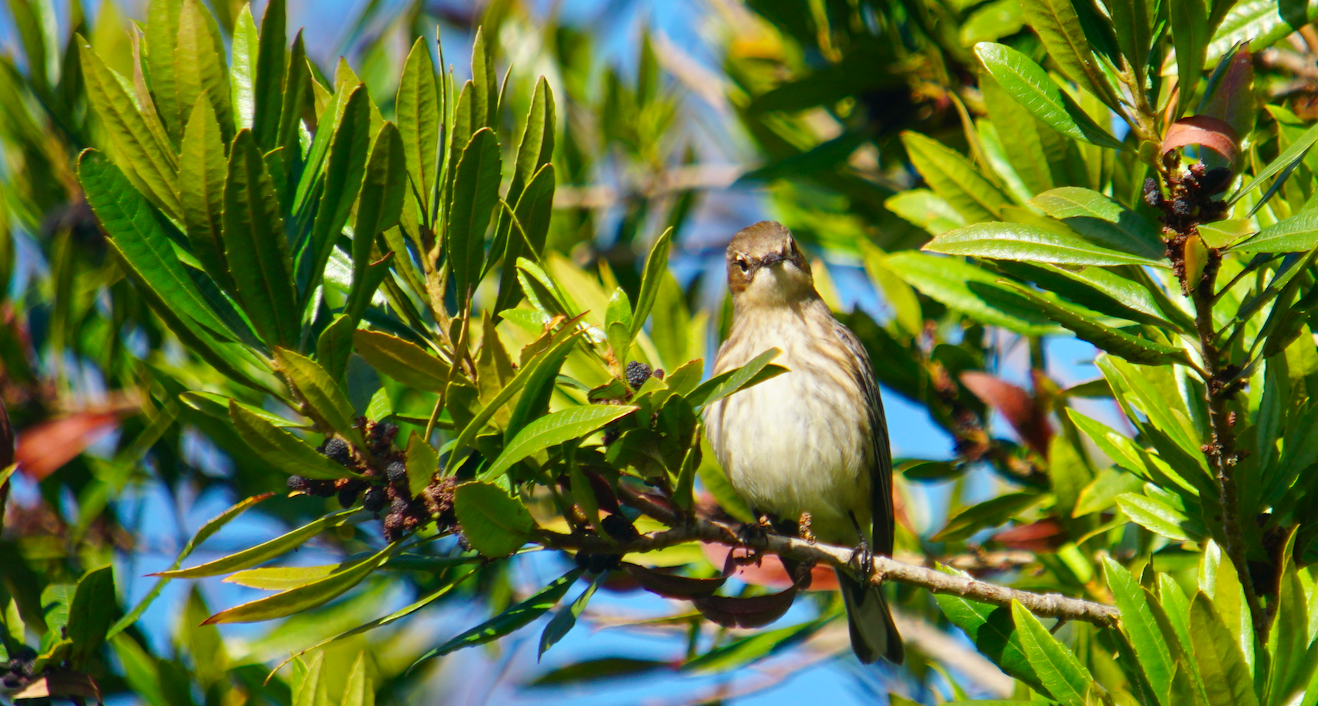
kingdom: Animalia
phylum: Chordata
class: Aves
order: Passeriformes
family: Parulidae
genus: Setophaga
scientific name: Setophaga coronata
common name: Myrtle warbler
